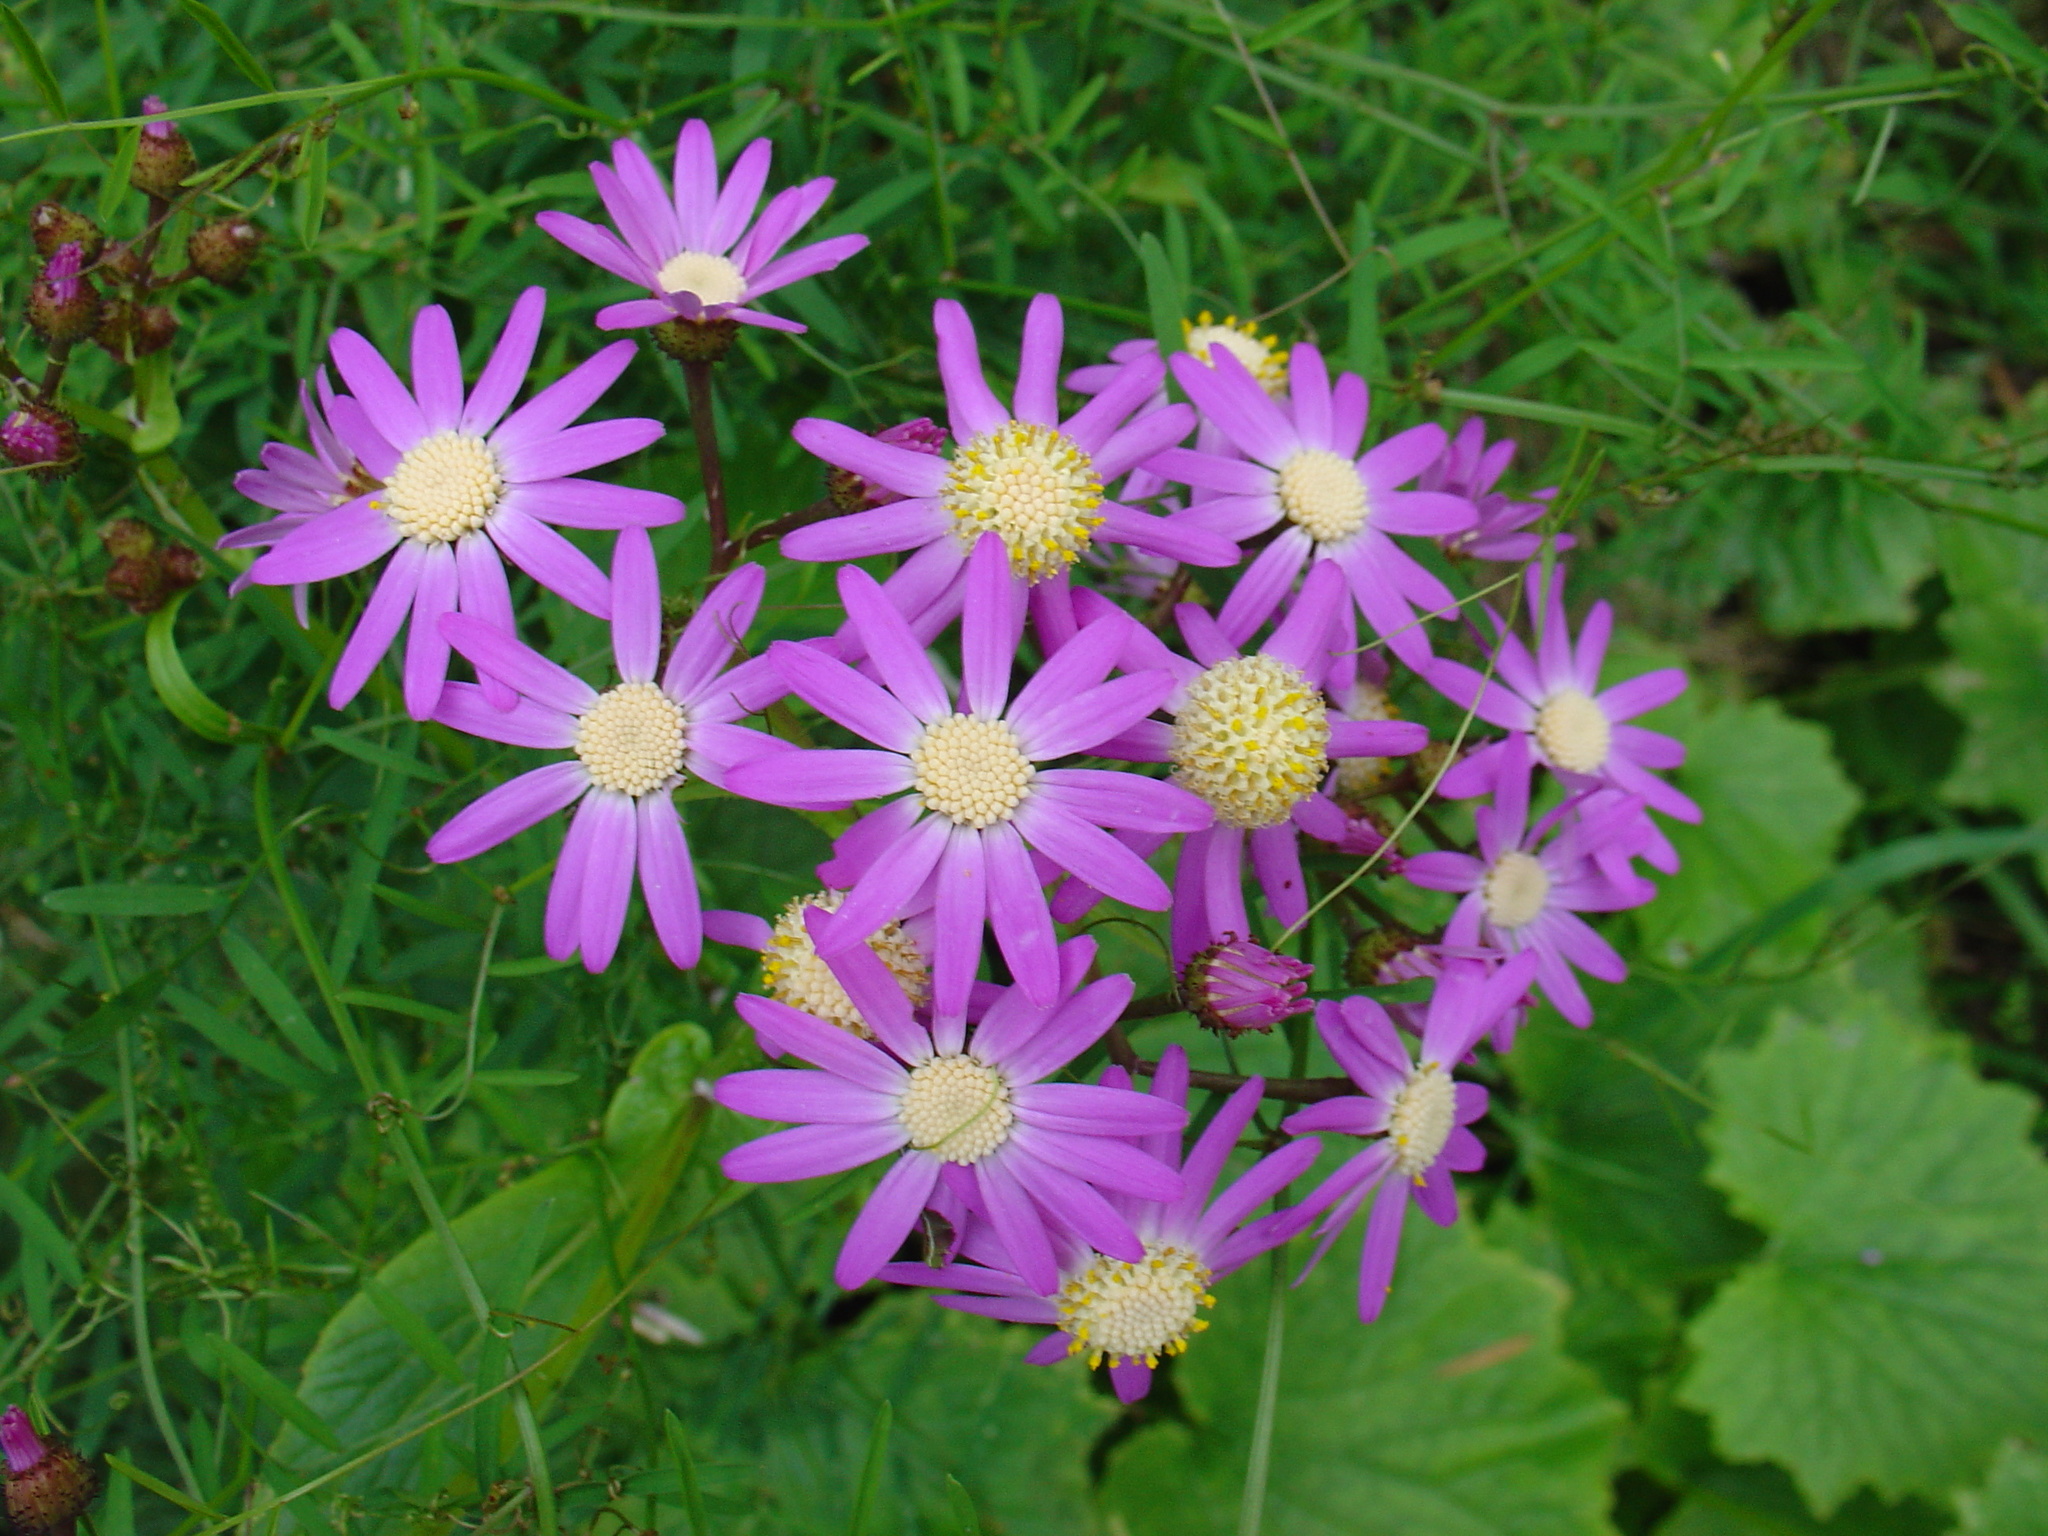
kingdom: Plantae
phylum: Tracheophyta
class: Magnoliopsida
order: Asterales
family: Asteraceae
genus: Pericallis
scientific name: Pericallis echinata
